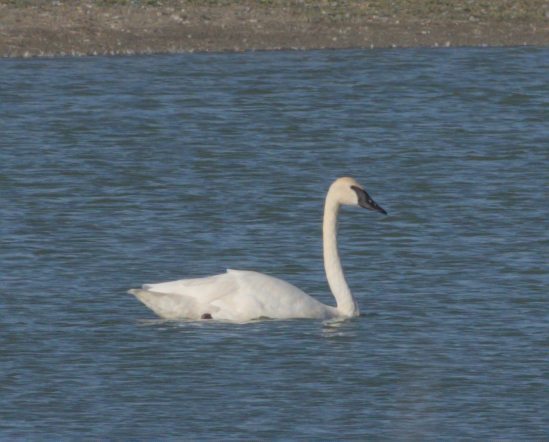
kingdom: Animalia
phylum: Chordata
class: Aves
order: Anseriformes
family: Anatidae
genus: Cygnus
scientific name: Cygnus buccinator
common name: Trumpeter swan
